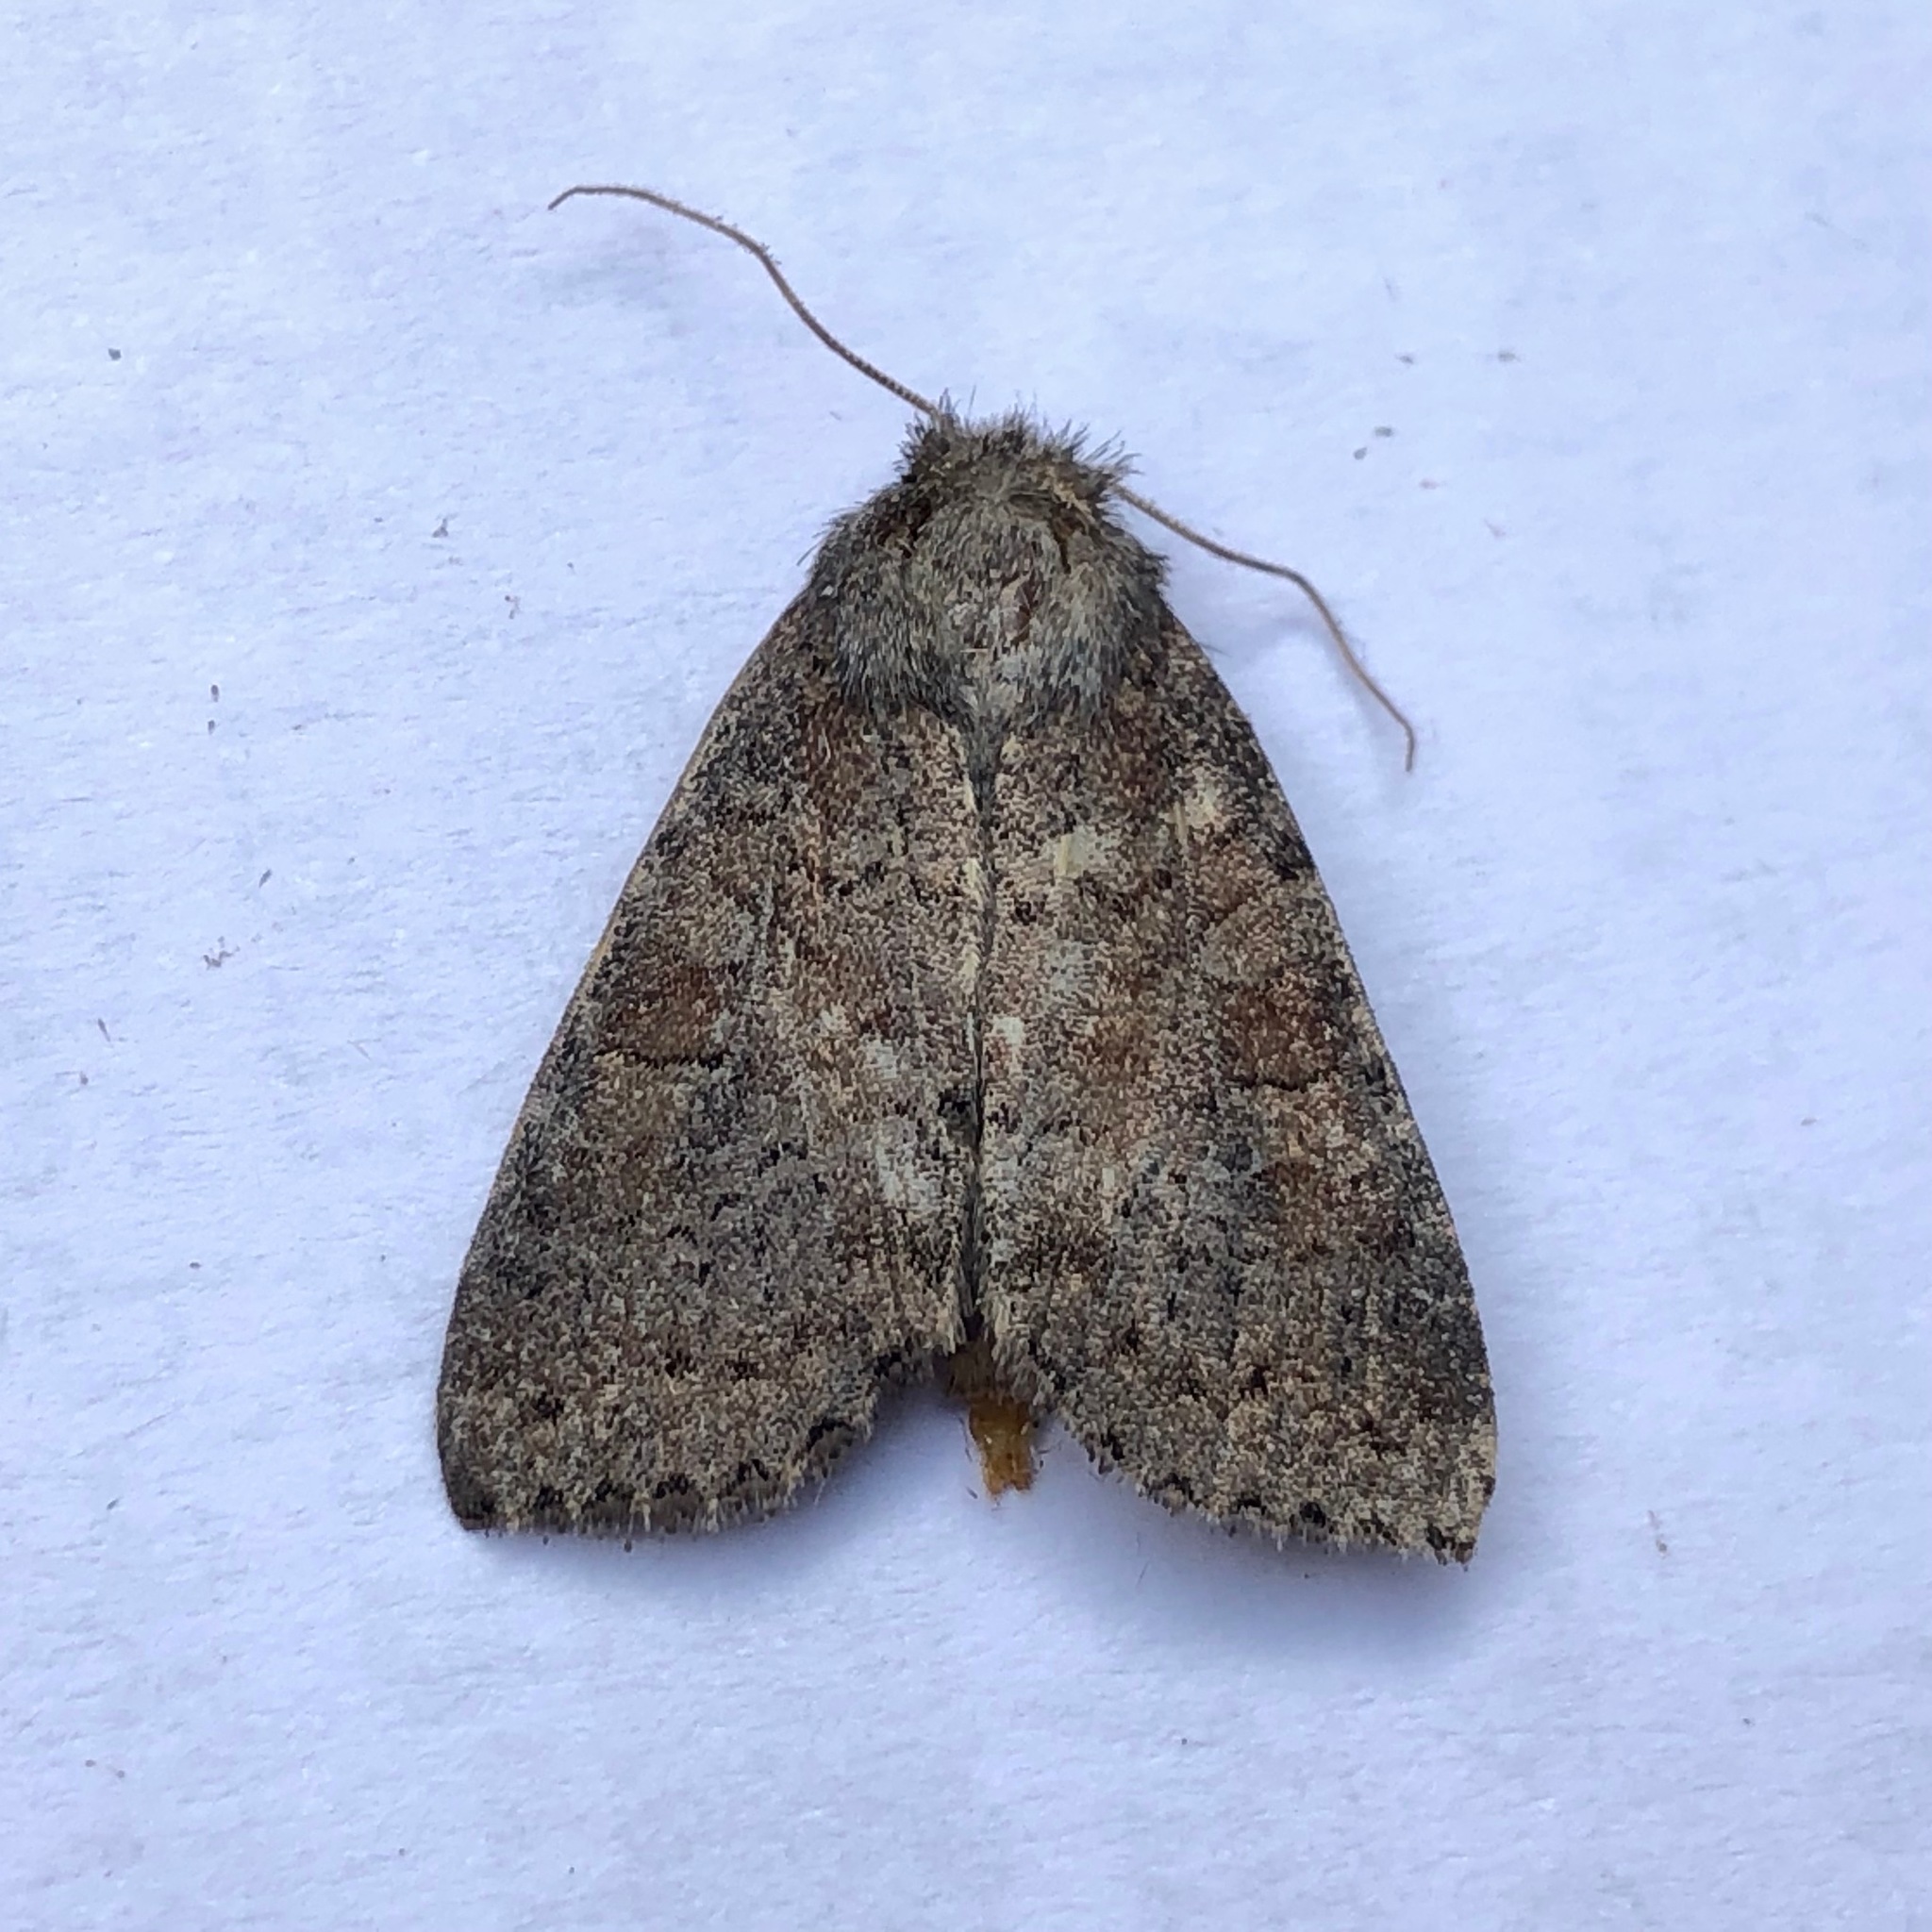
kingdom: Animalia
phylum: Arthropoda
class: Insecta
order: Lepidoptera
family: Noctuidae
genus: Parastichtis
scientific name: Parastichtis suspecta
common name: Suspected
